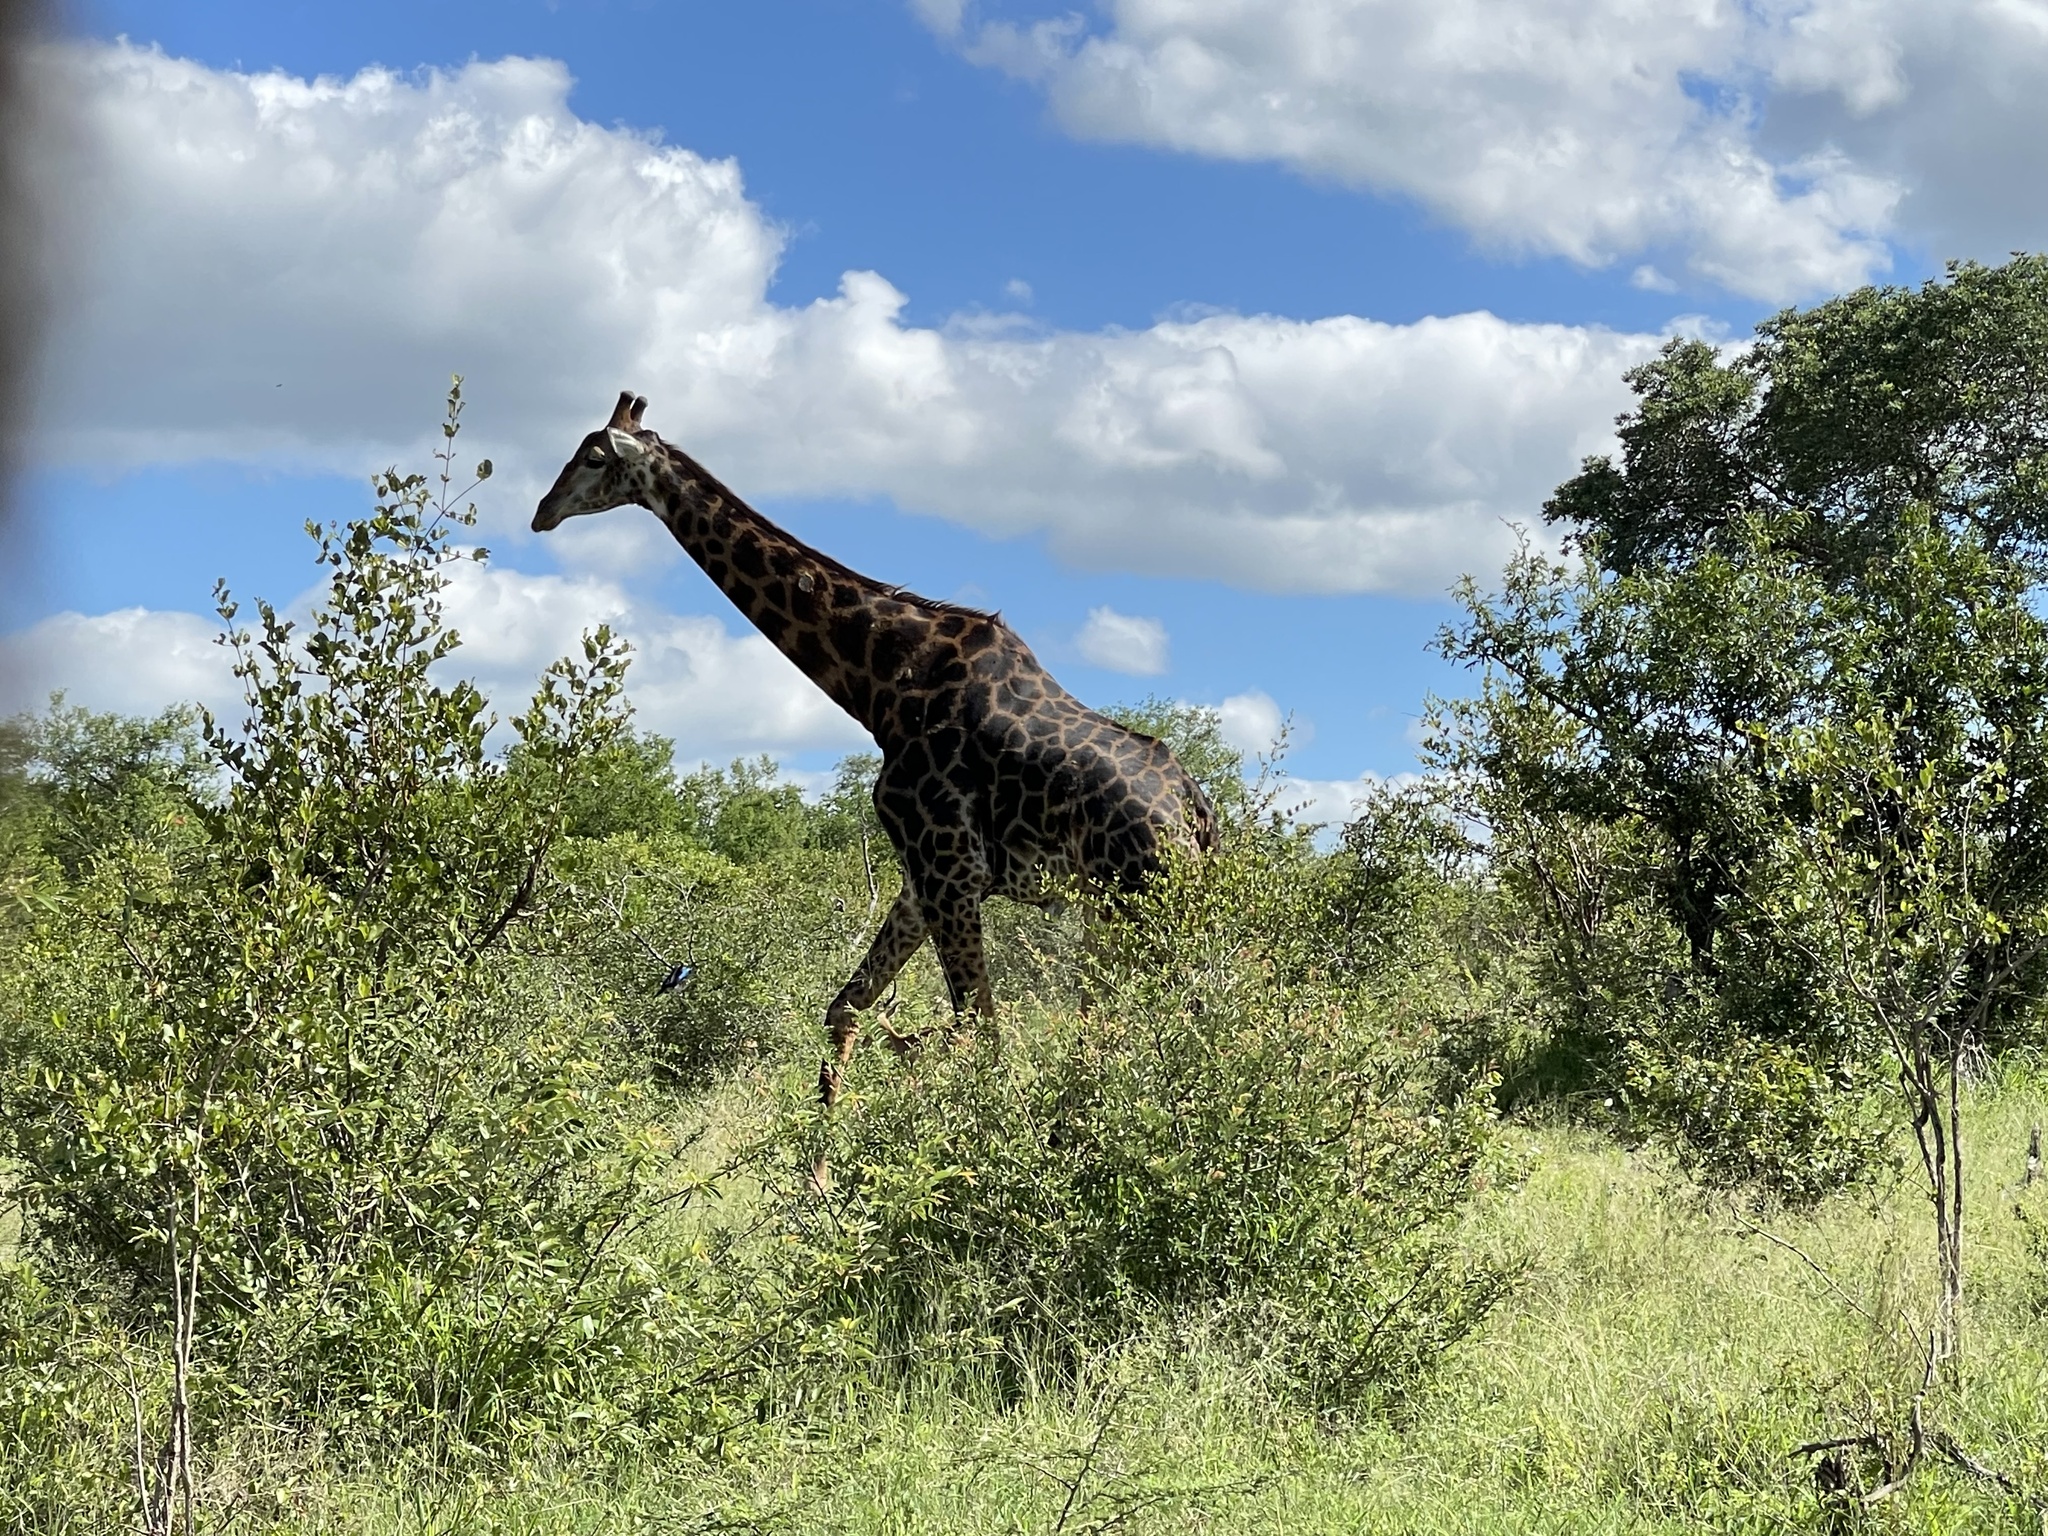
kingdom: Animalia
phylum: Chordata
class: Mammalia
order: Artiodactyla
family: Giraffidae
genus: Giraffa
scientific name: Giraffa giraffa
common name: Southern giraffe
